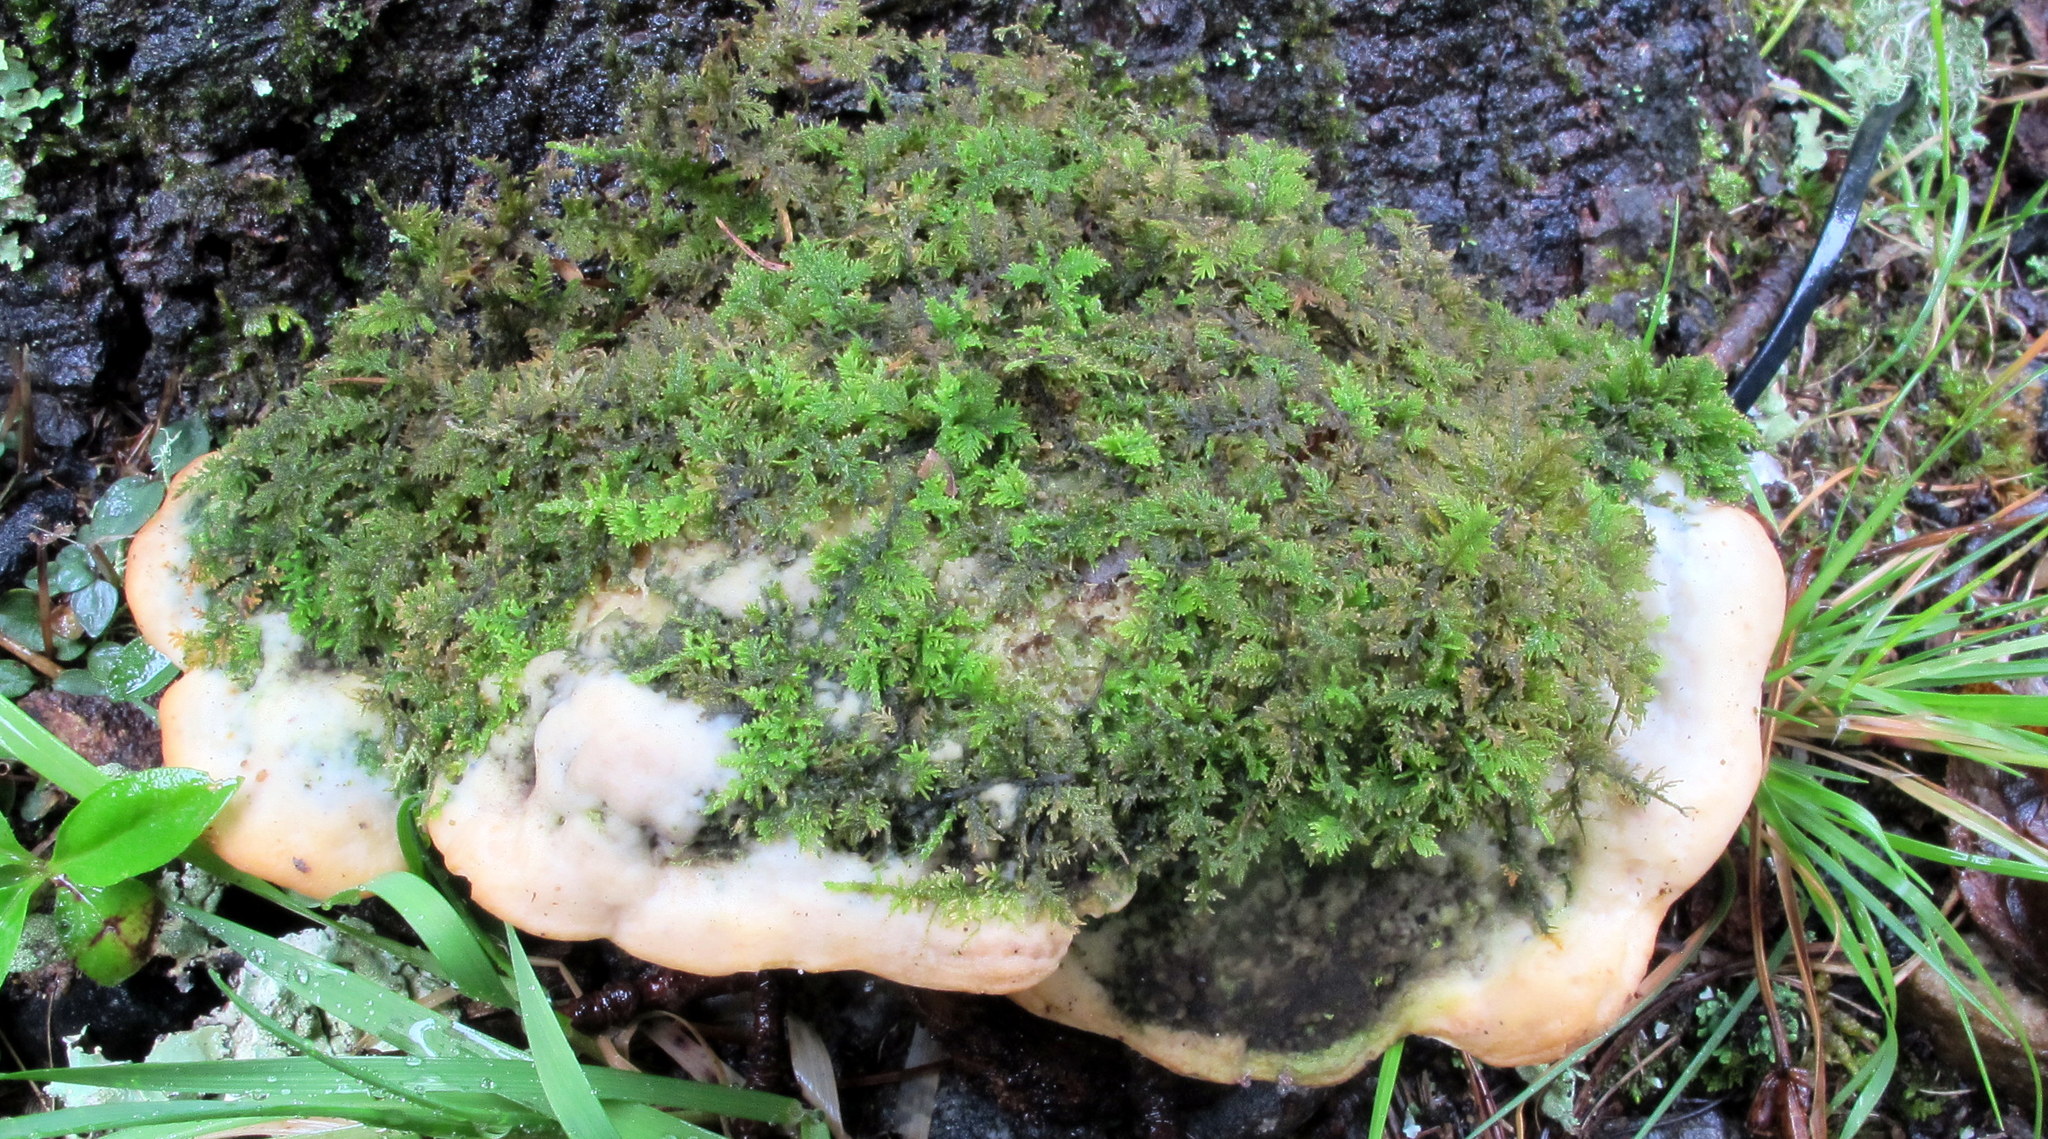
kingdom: Fungi
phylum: Basidiomycota
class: Agaricomycetes
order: Hymenochaetales
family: Oxyporaceae
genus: Oxyporus
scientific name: Oxyporus populinus
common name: Poplar bracket
